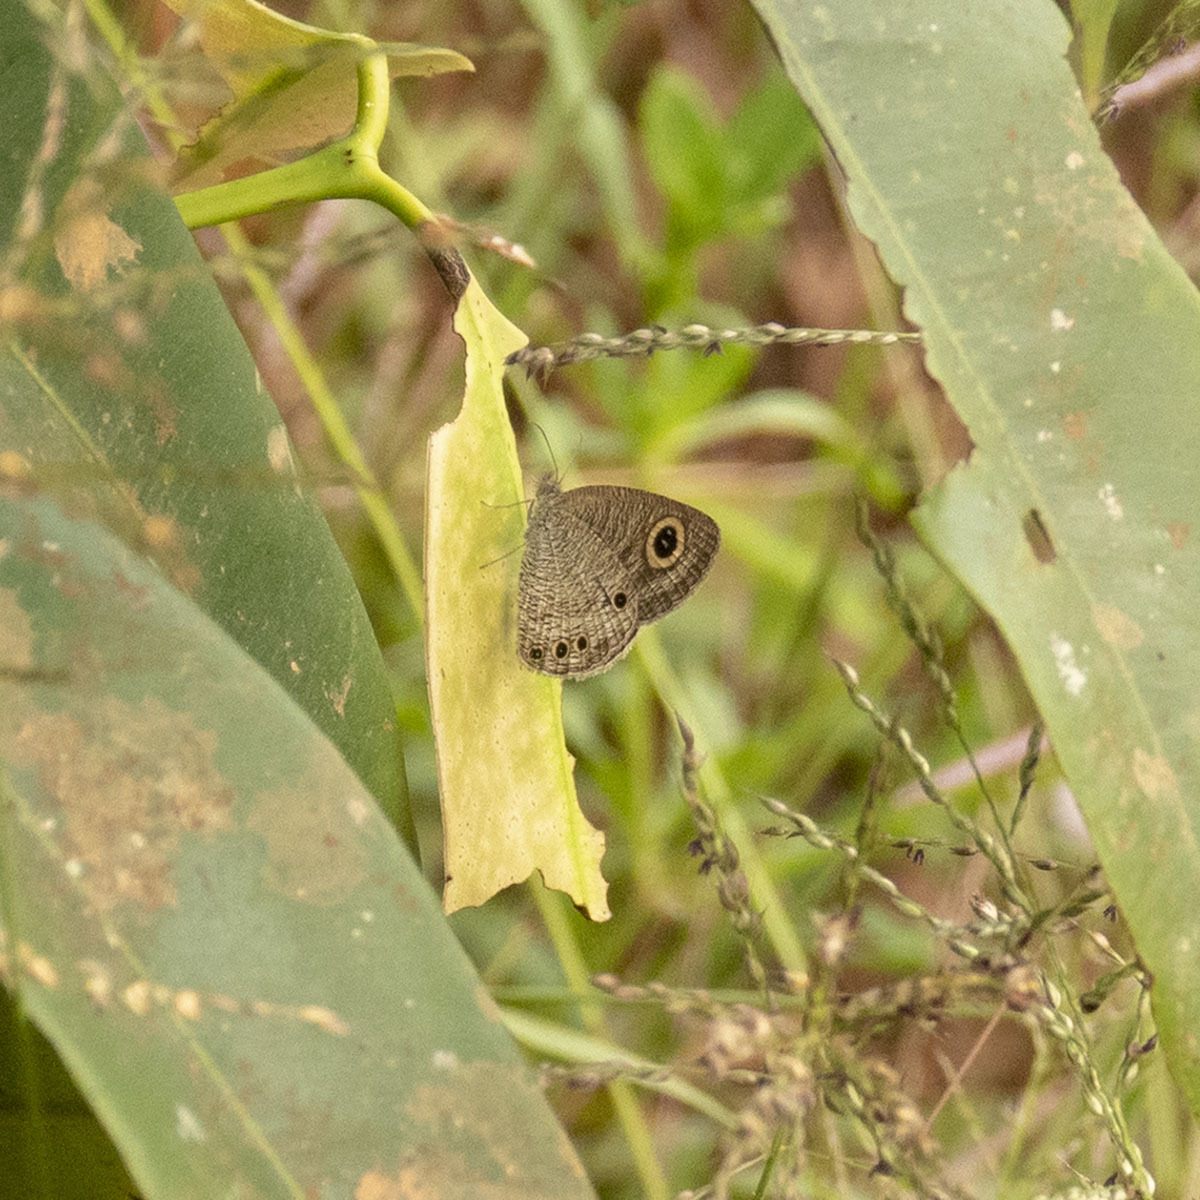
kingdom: Animalia
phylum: Arthropoda
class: Insecta
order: Lepidoptera
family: Nymphalidae
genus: Ypthima
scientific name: Ypthima huebneri
